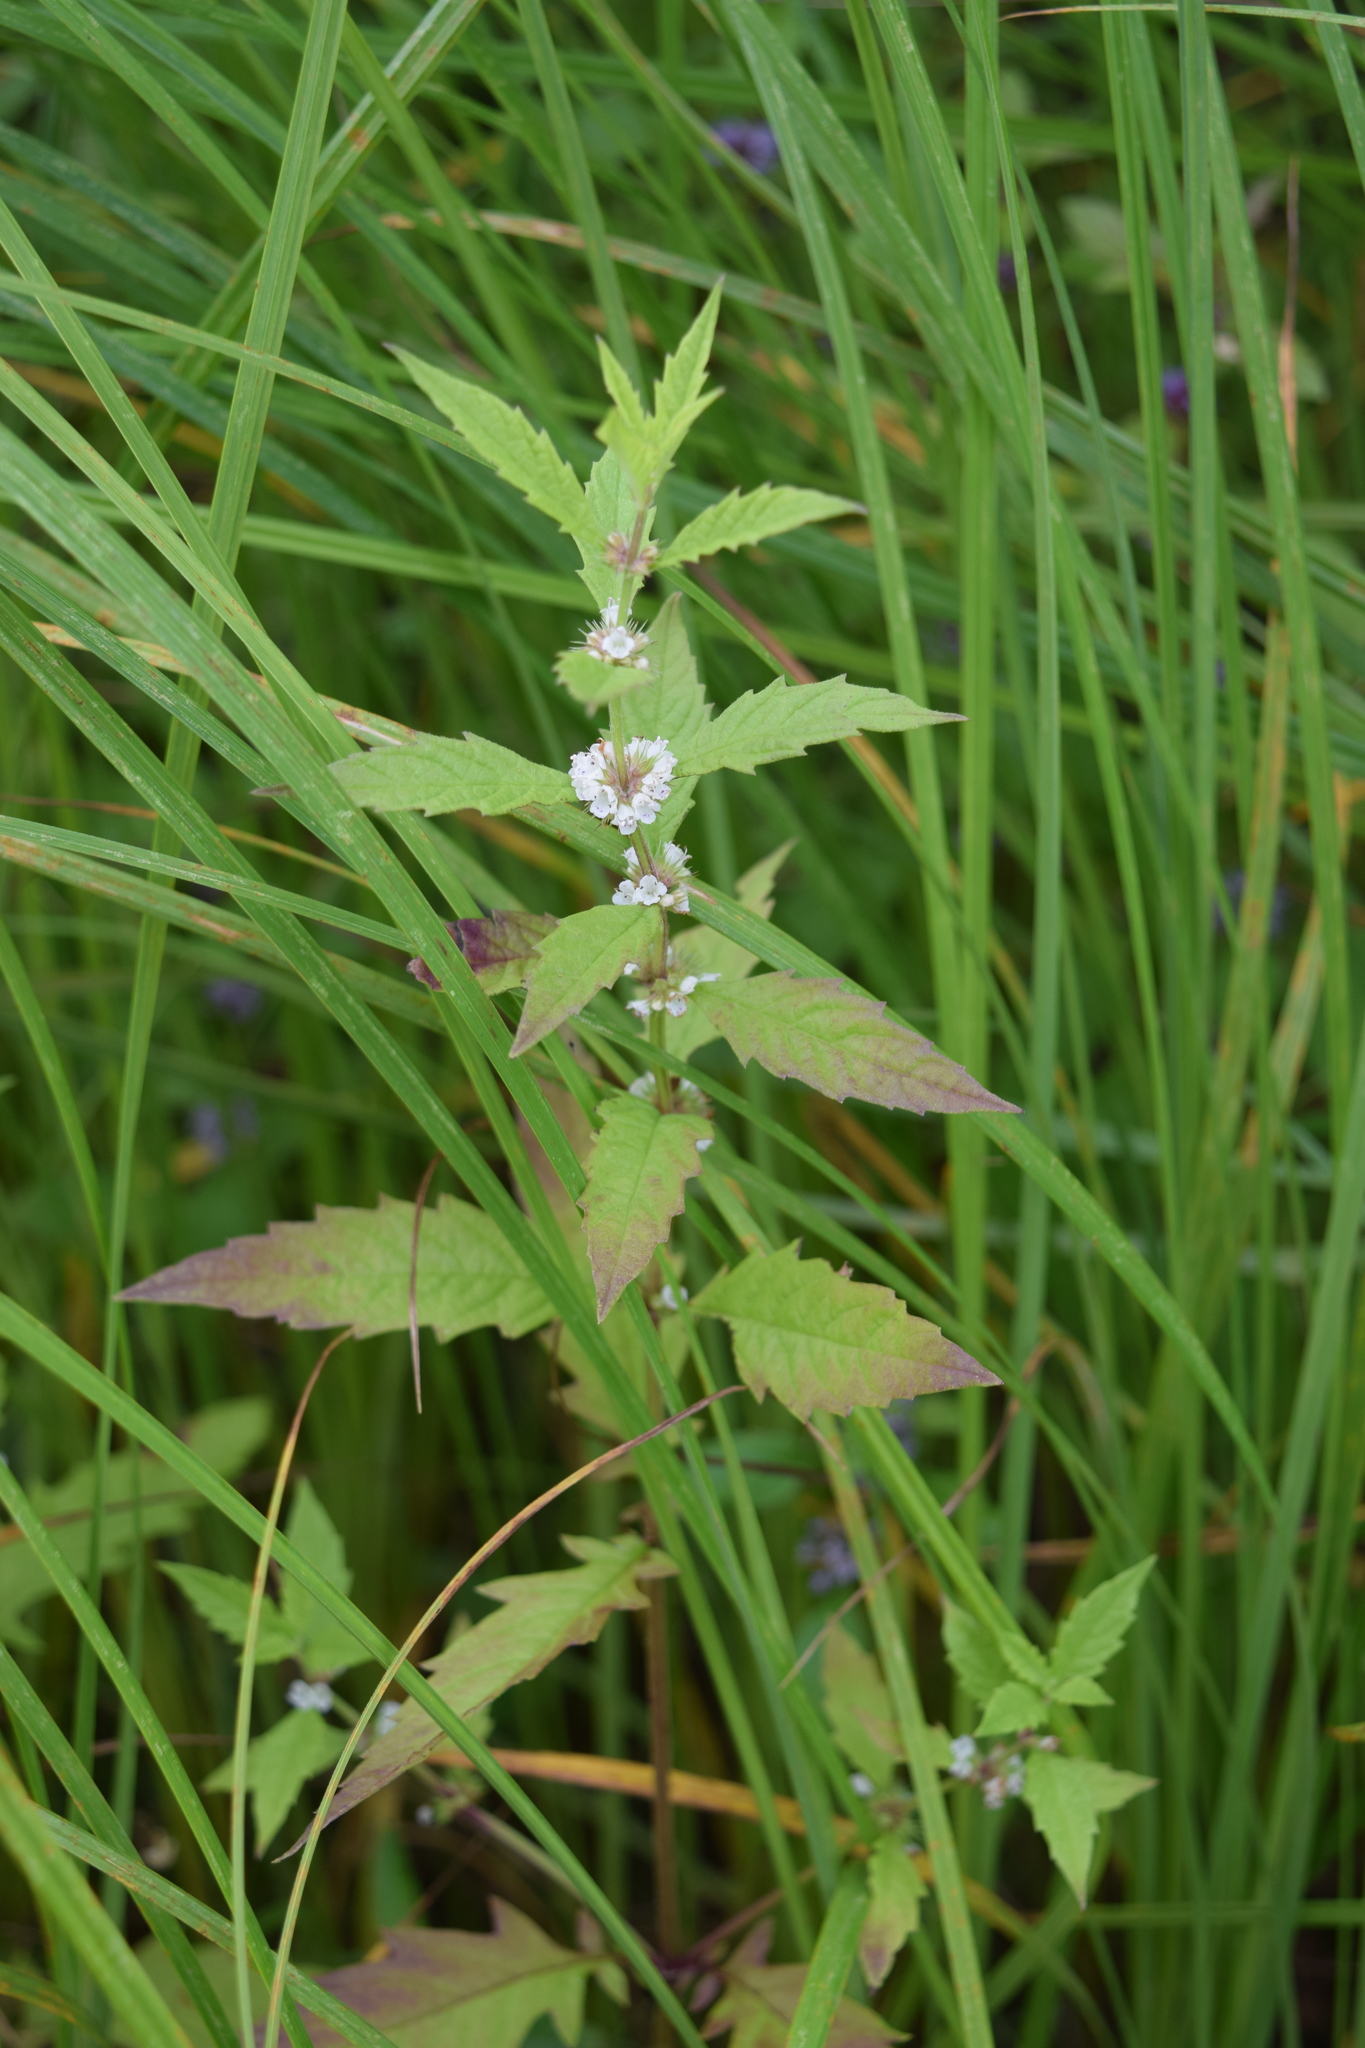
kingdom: Plantae
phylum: Tracheophyta
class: Magnoliopsida
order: Lamiales
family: Lamiaceae
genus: Lycopus
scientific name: Lycopus europaeus
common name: European bugleweed
